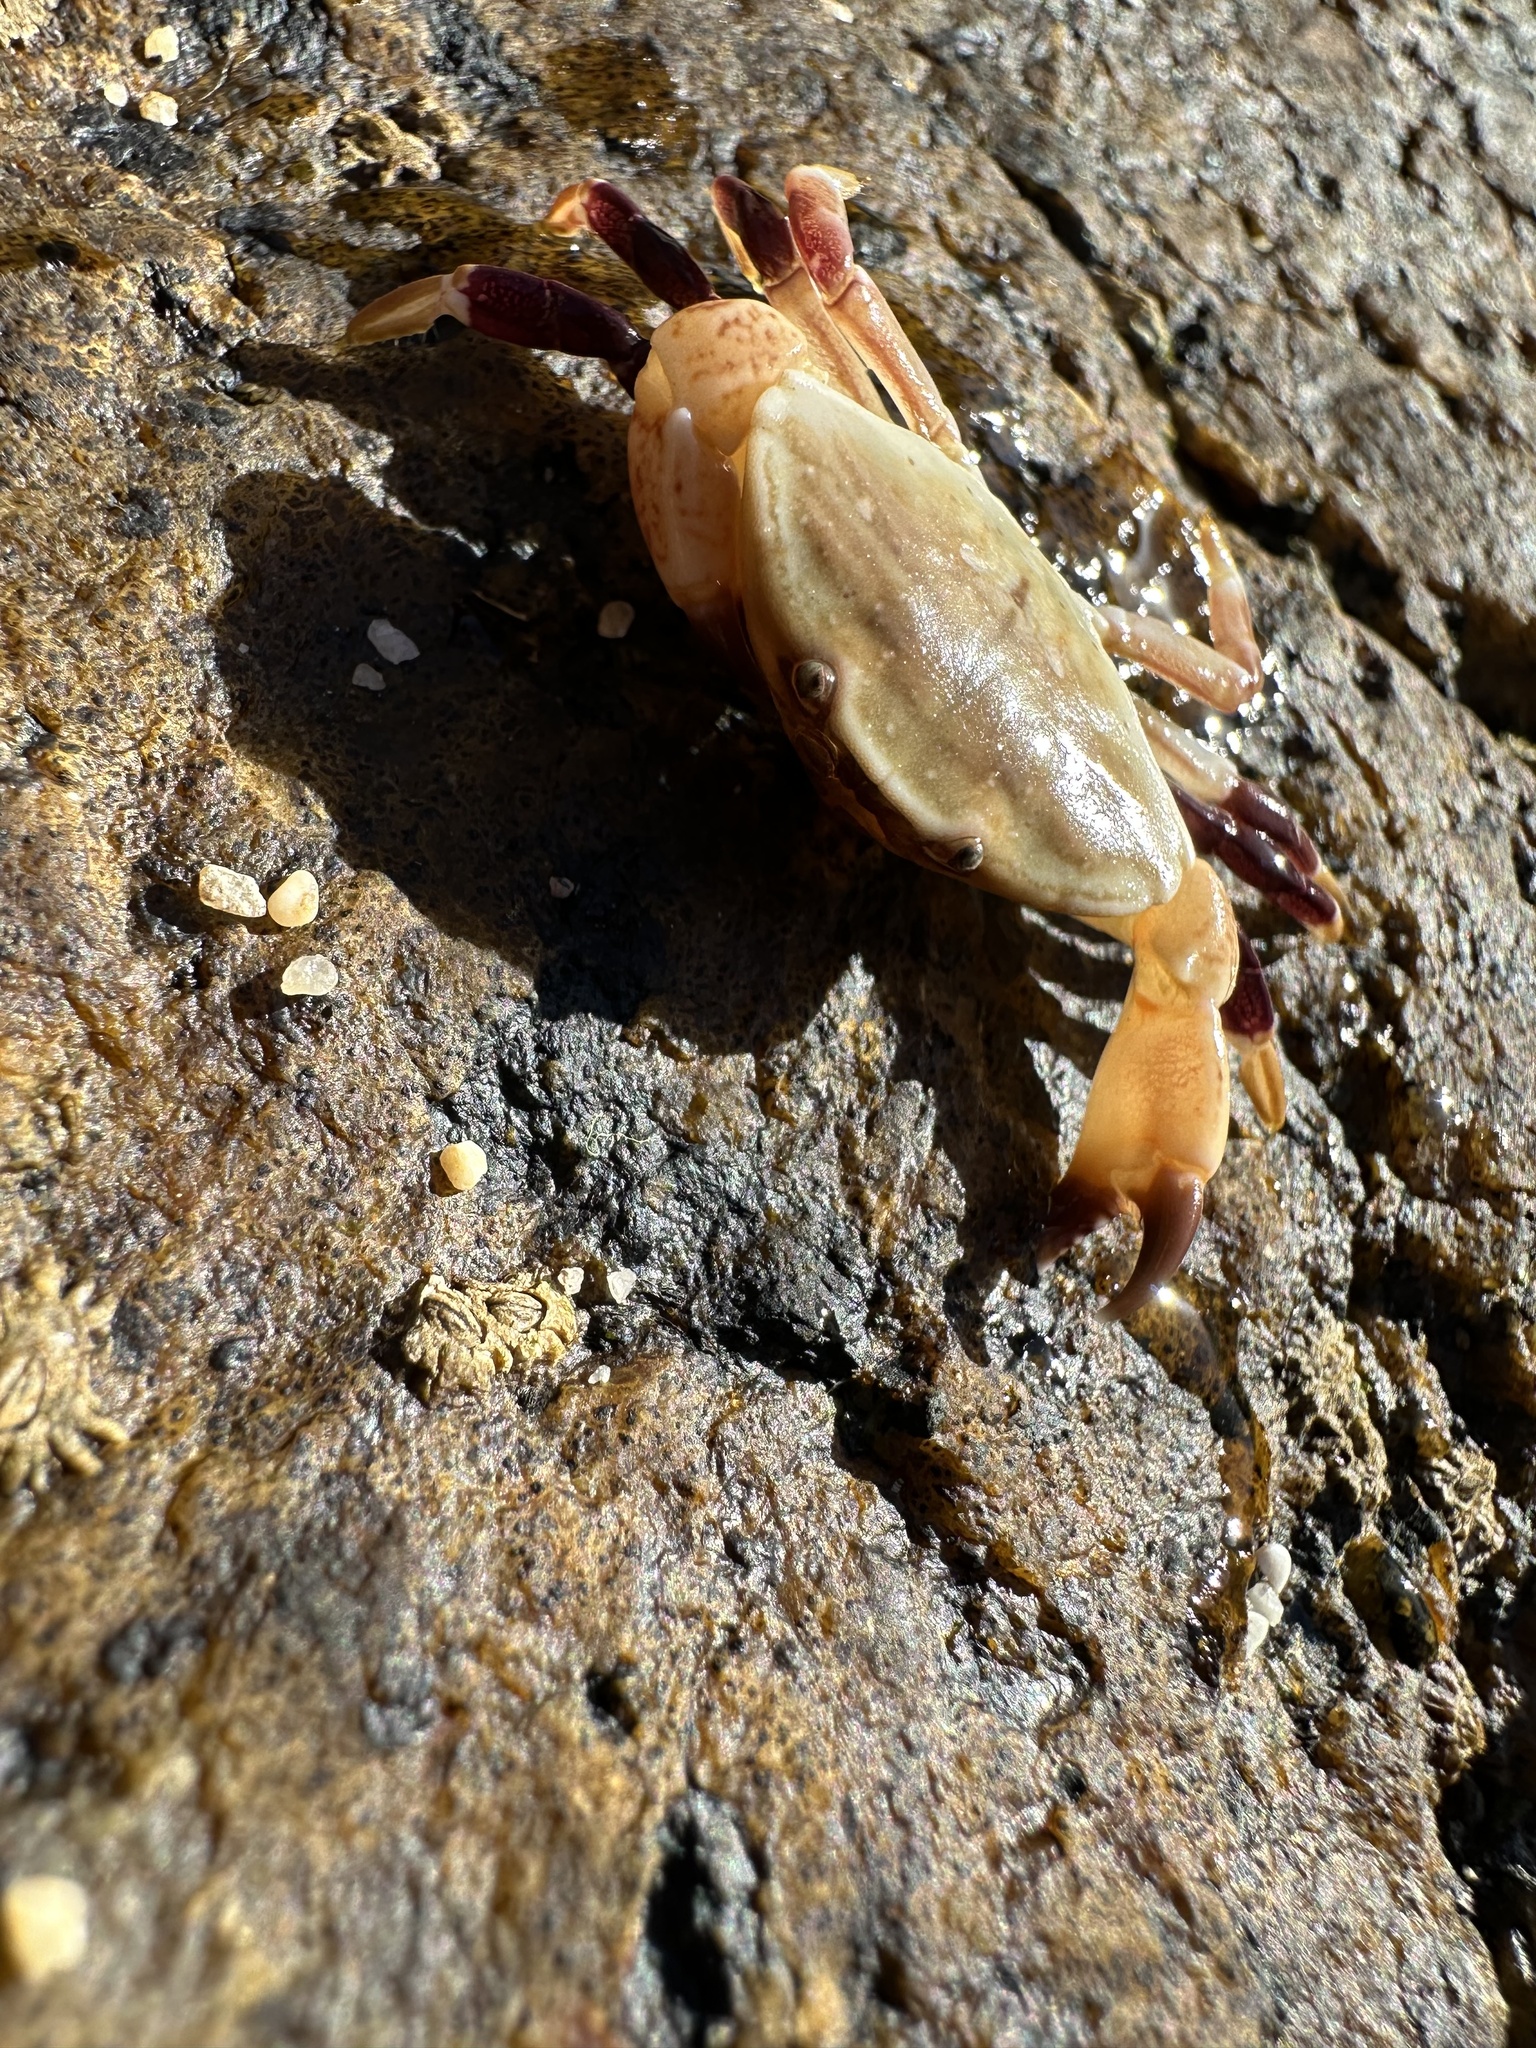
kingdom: Animalia
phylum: Arthropoda
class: Malacostraca
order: Decapoda
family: Platyxanthidae
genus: Homalaspis
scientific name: Homalaspis plana
